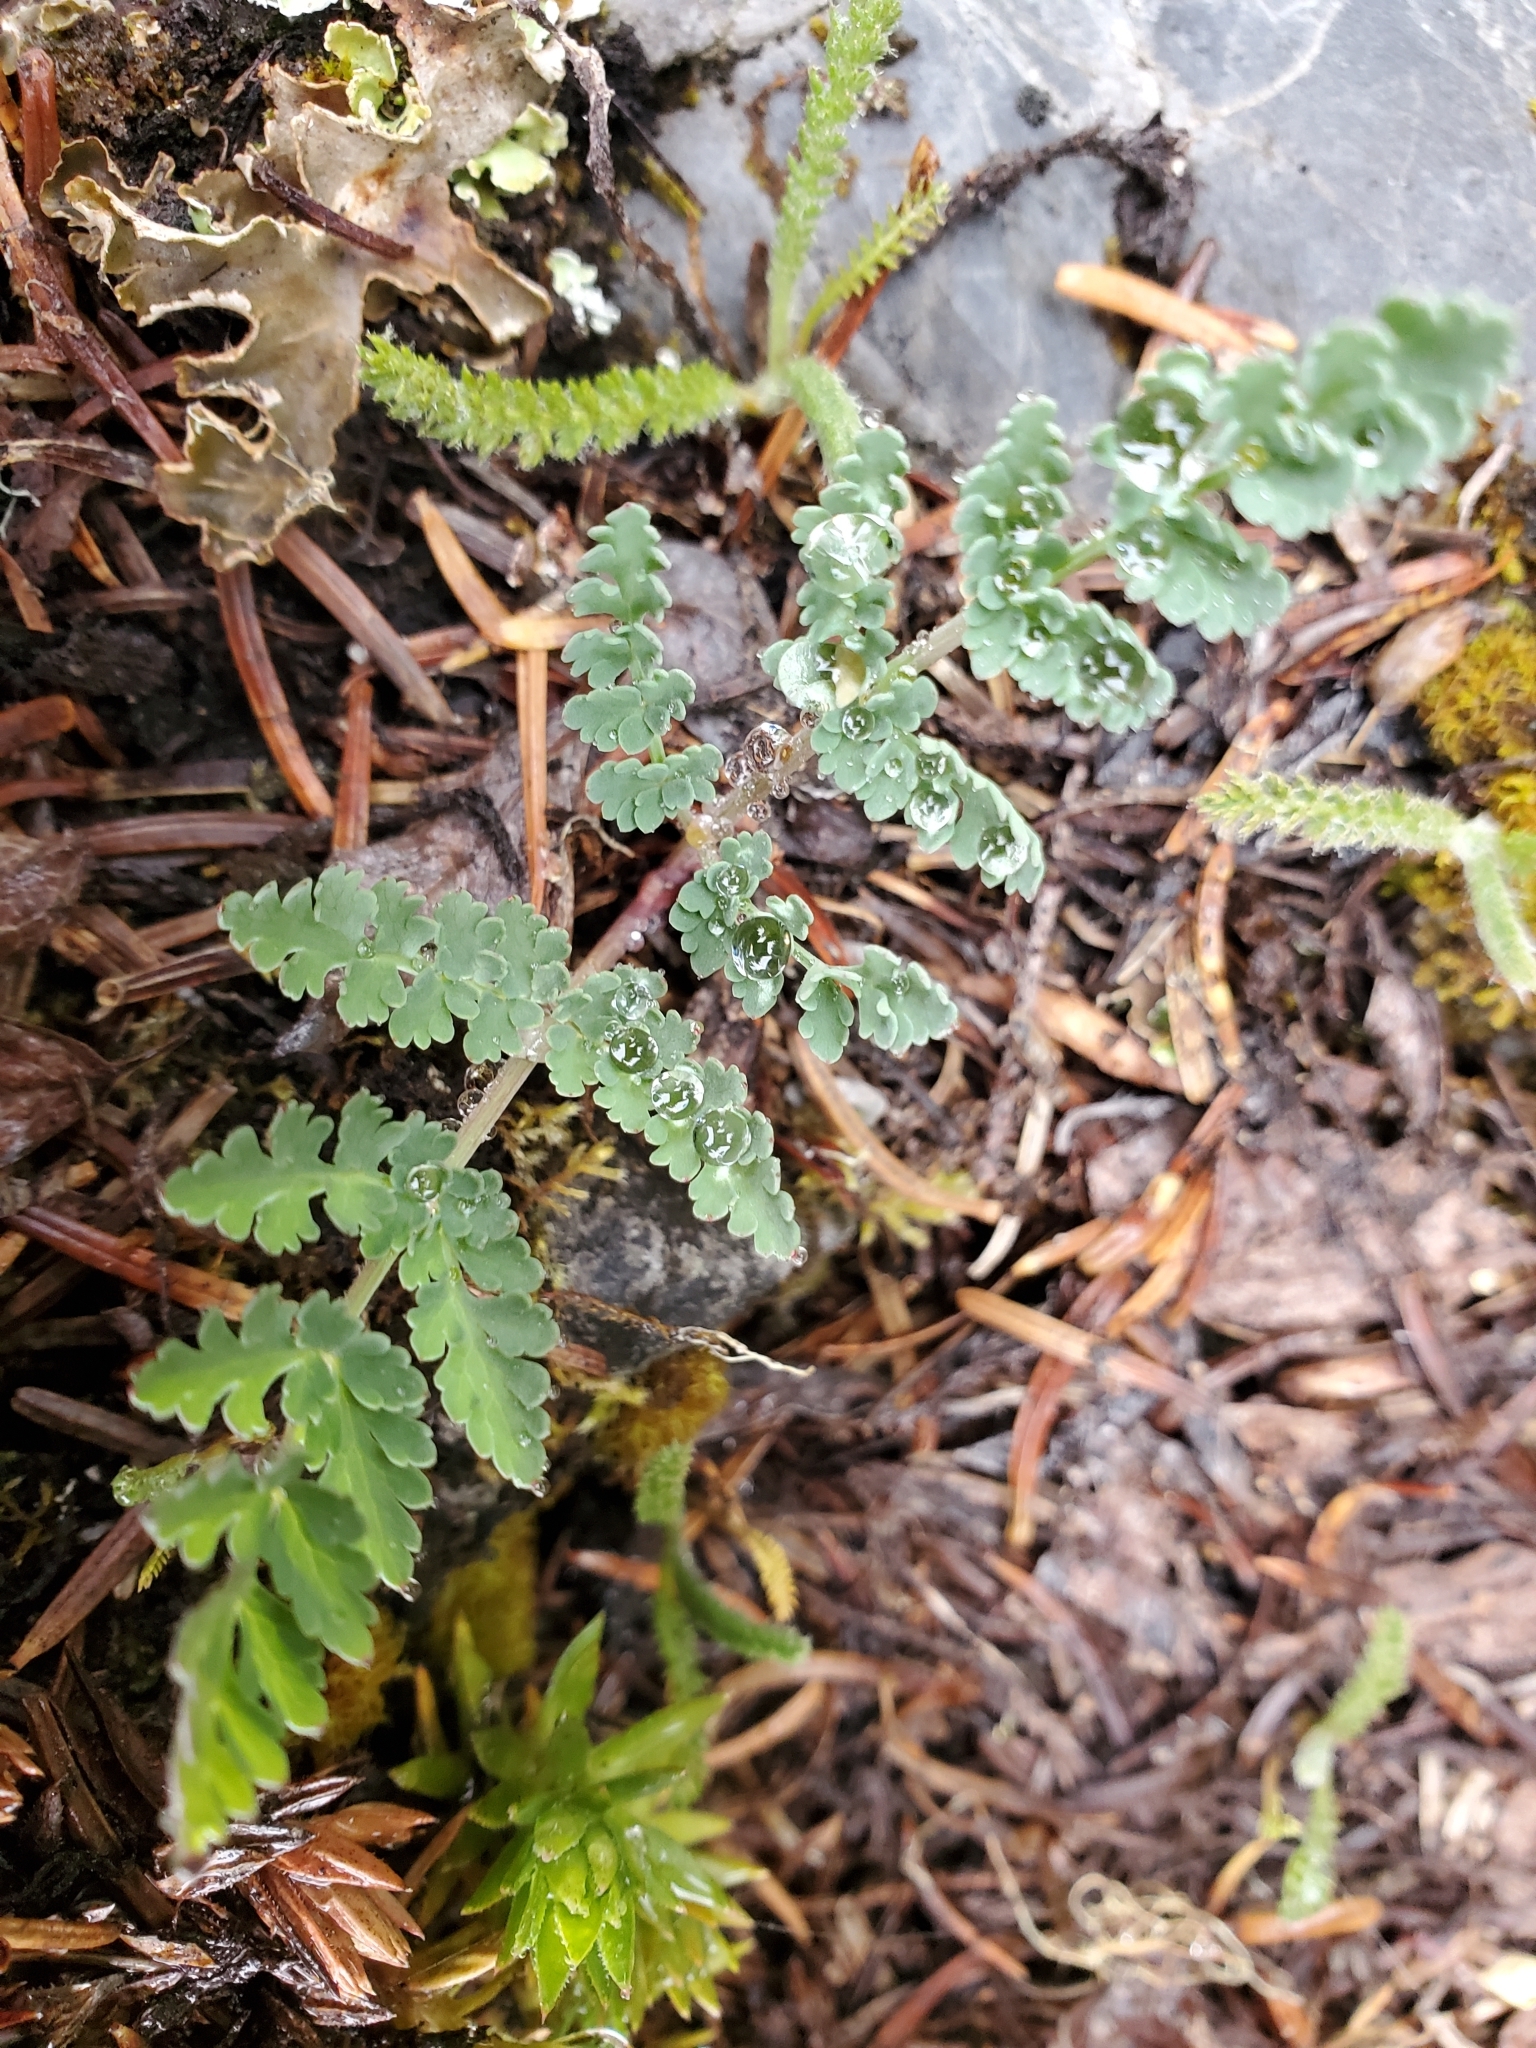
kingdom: Plantae
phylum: Tracheophyta
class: Magnoliopsida
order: Apiales
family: Apiaceae
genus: Lomatium
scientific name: Lomatium martindalei
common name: Cascade desert-parsley
